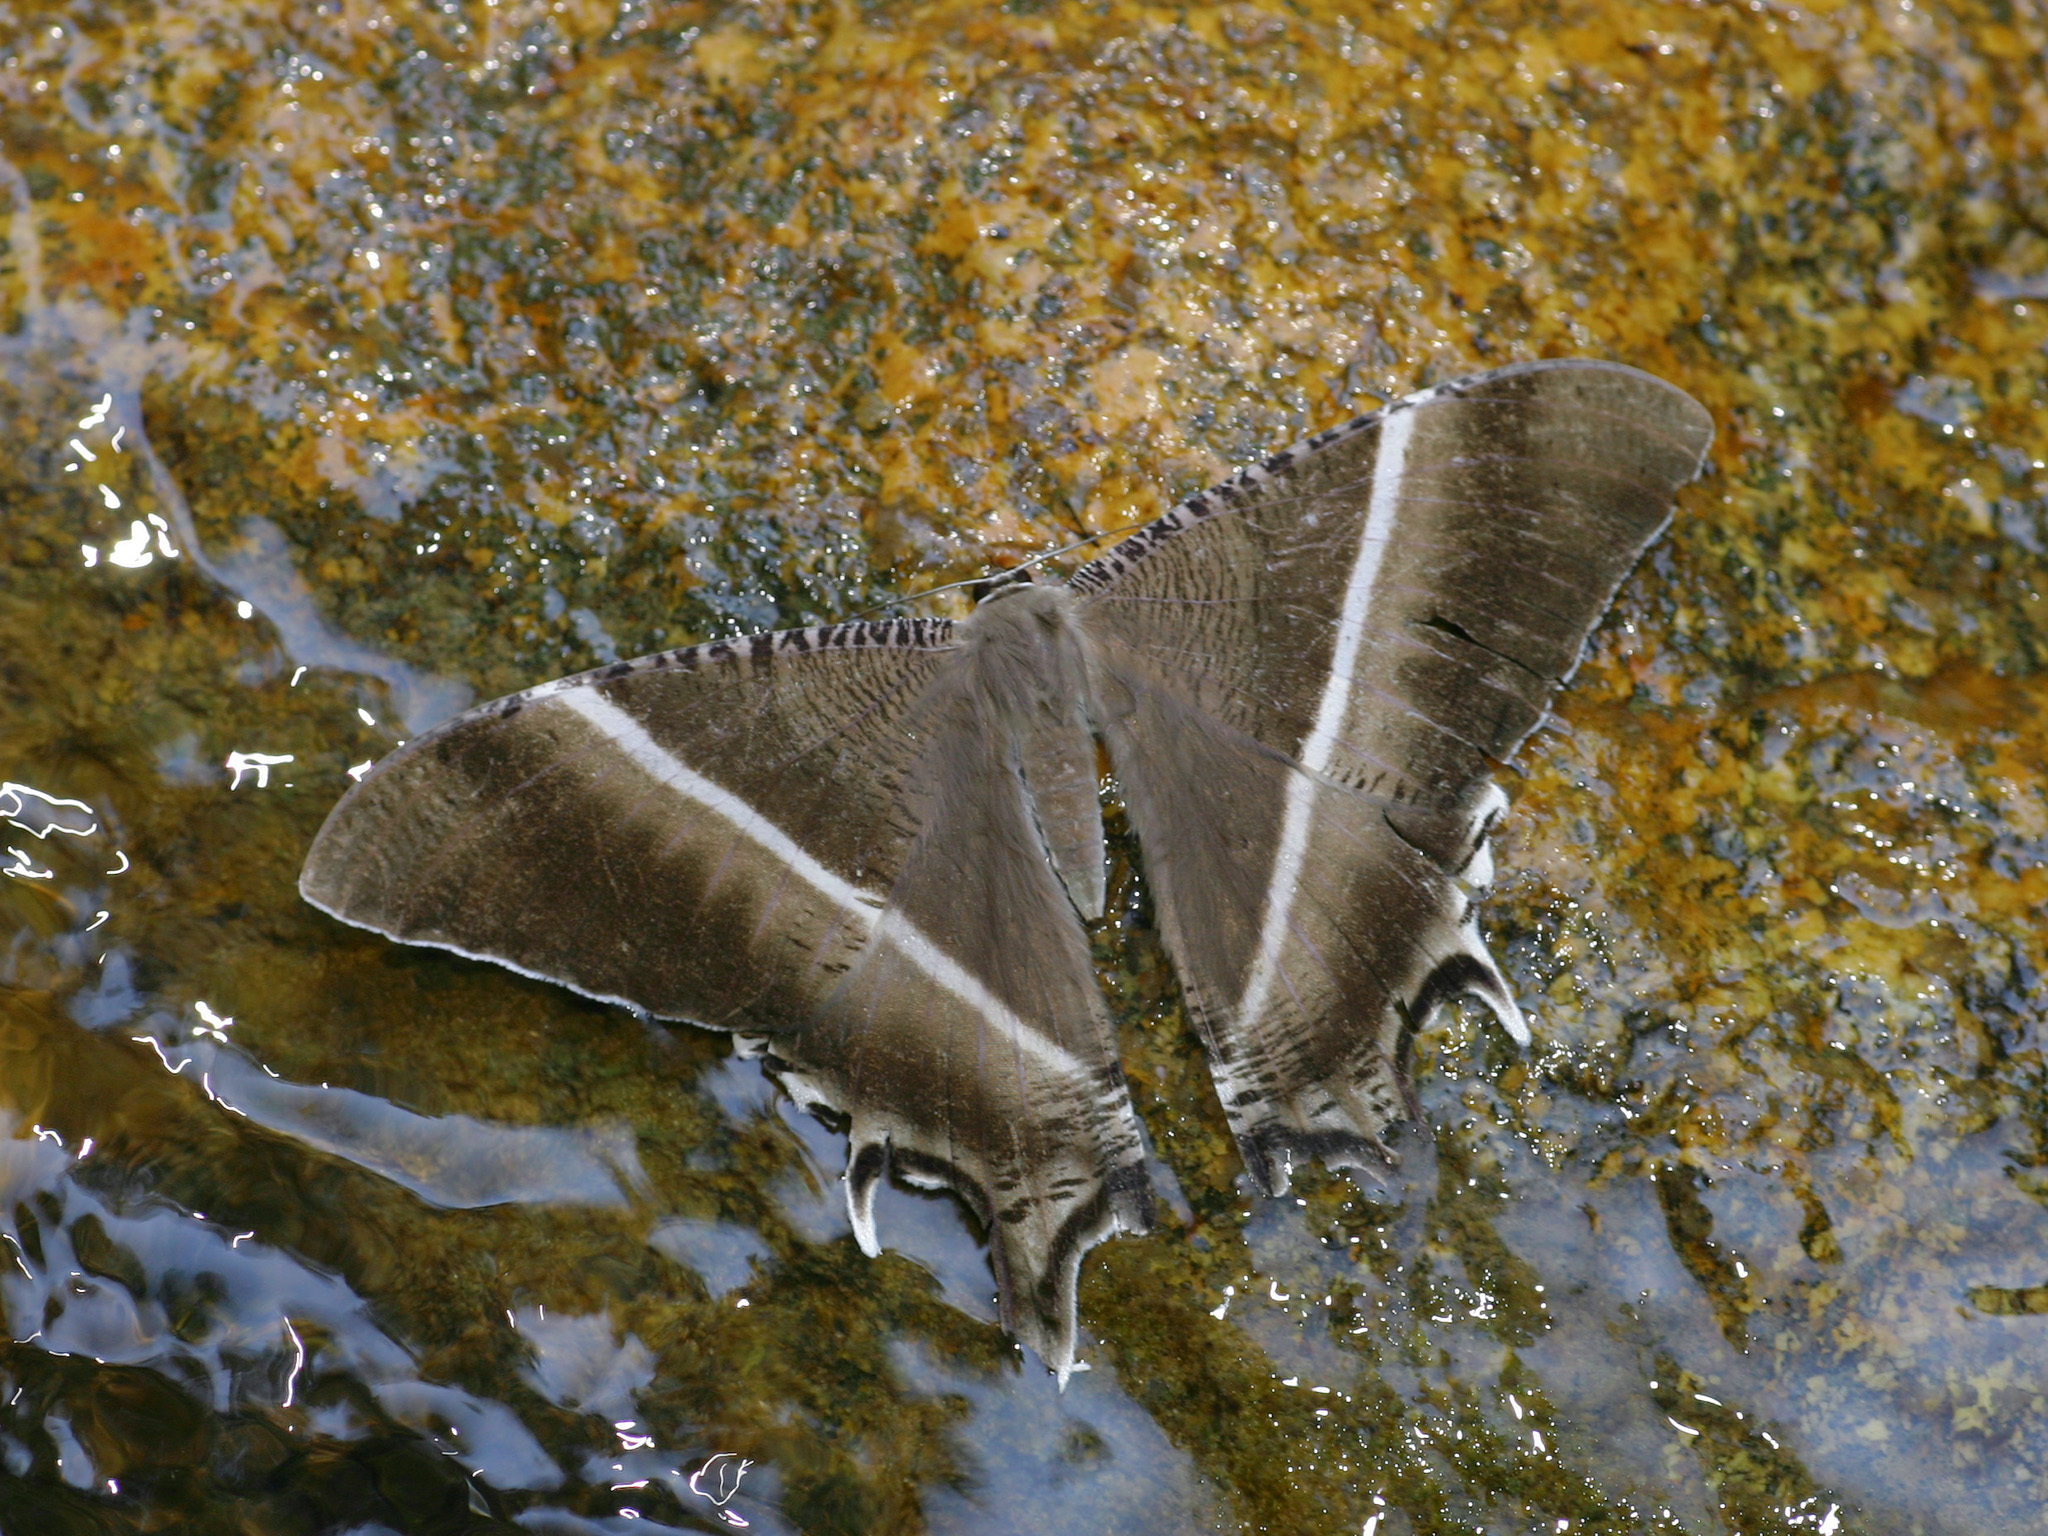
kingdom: Animalia
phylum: Arthropoda
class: Insecta
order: Lepidoptera
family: Uraniidae
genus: Lyssa
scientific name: Lyssa zampa
